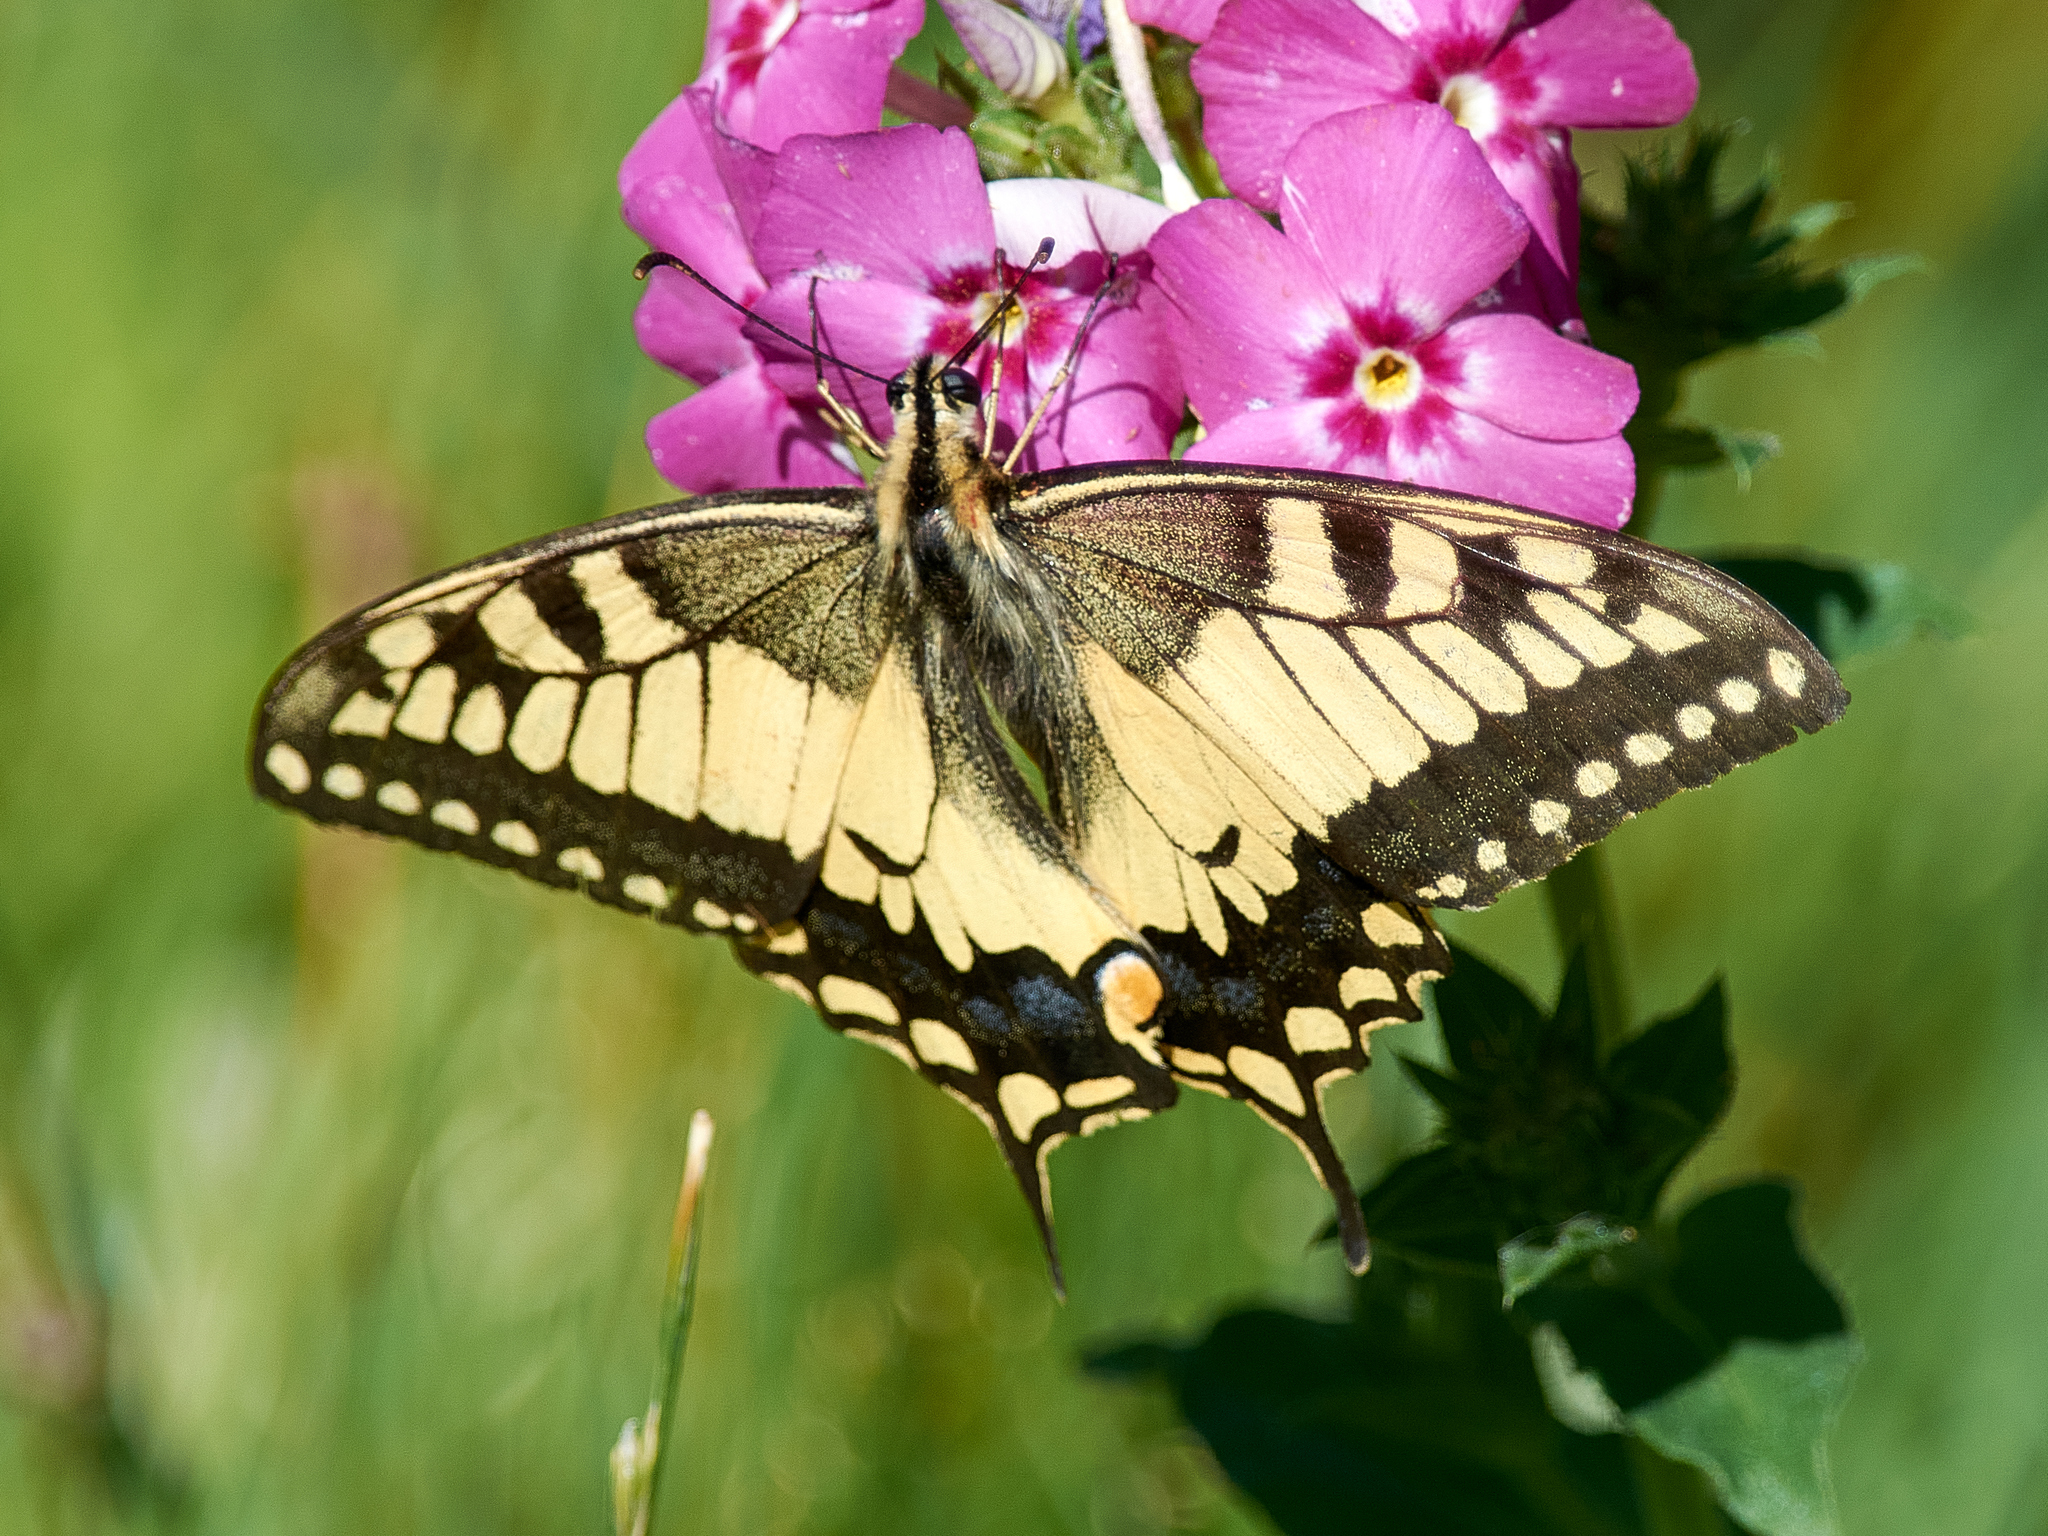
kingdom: Animalia
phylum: Arthropoda
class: Insecta
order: Lepidoptera
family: Papilionidae
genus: Papilio
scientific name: Papilio machaon
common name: Swallowtail
